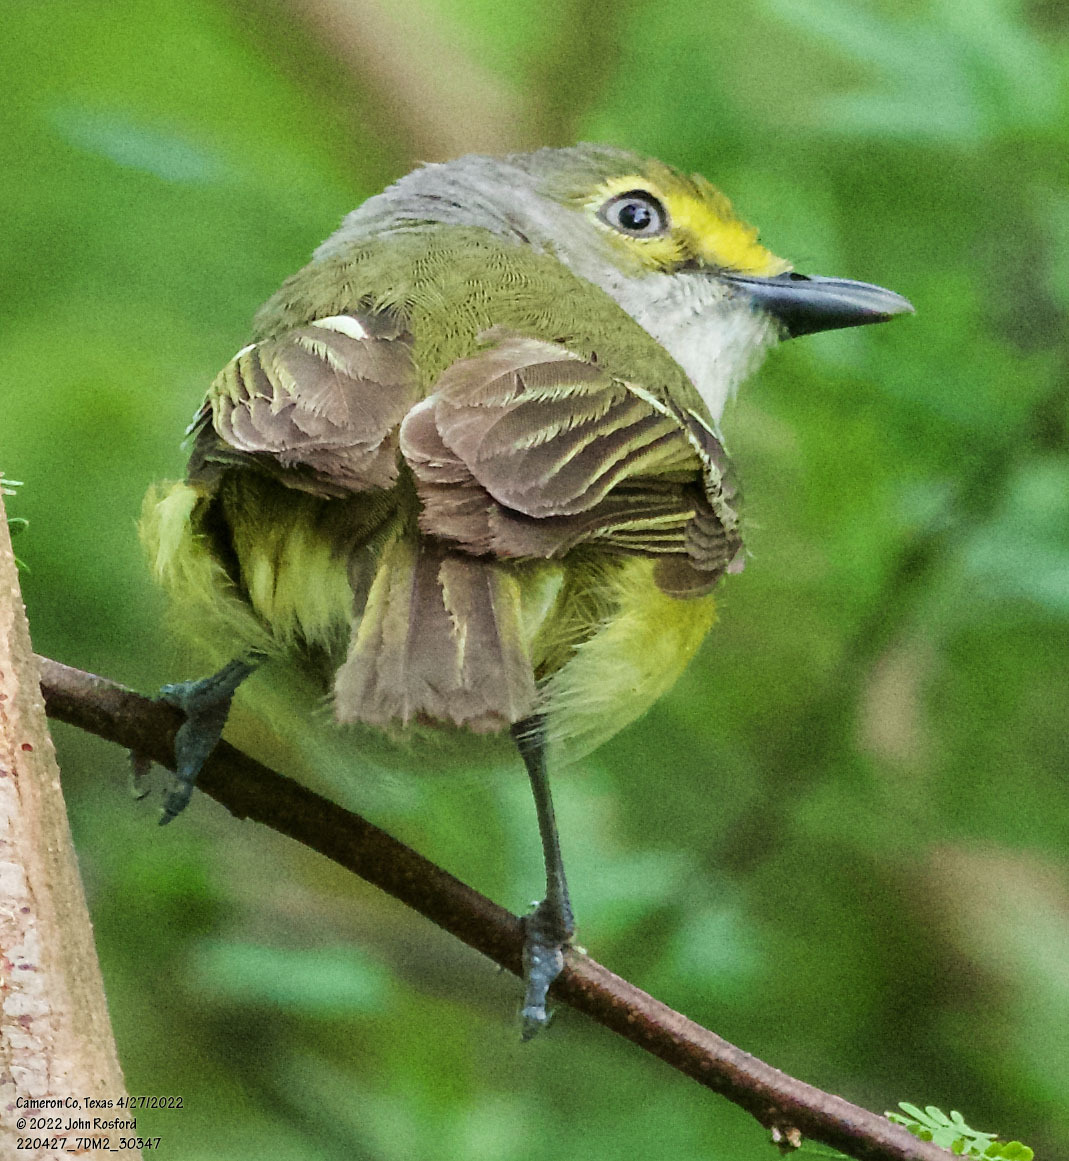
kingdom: Animalia
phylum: Chordata
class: Aves
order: Passeriformes
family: Vireonidae
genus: Vireo
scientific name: Vireo griseus
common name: White-eyed vireo
